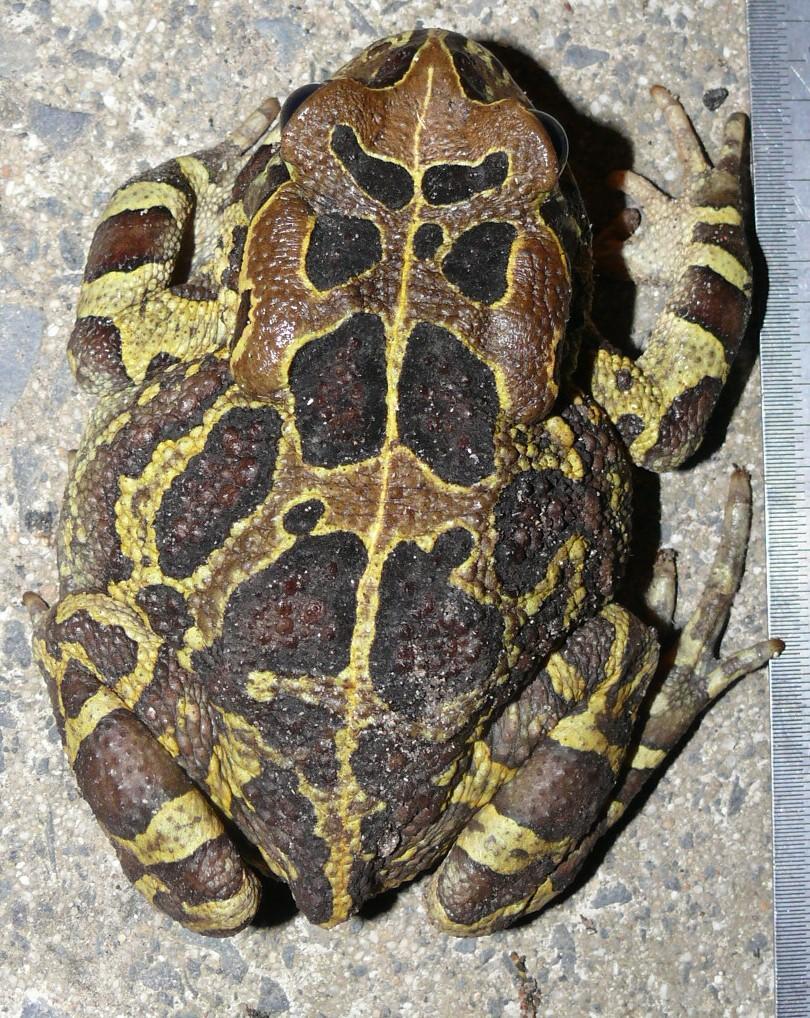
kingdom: Animalia
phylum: Chordata
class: Amphibia
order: Anura
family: Bufonidae
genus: Sclerophrys
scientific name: Sclerophrys pantherina
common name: Panther toad
